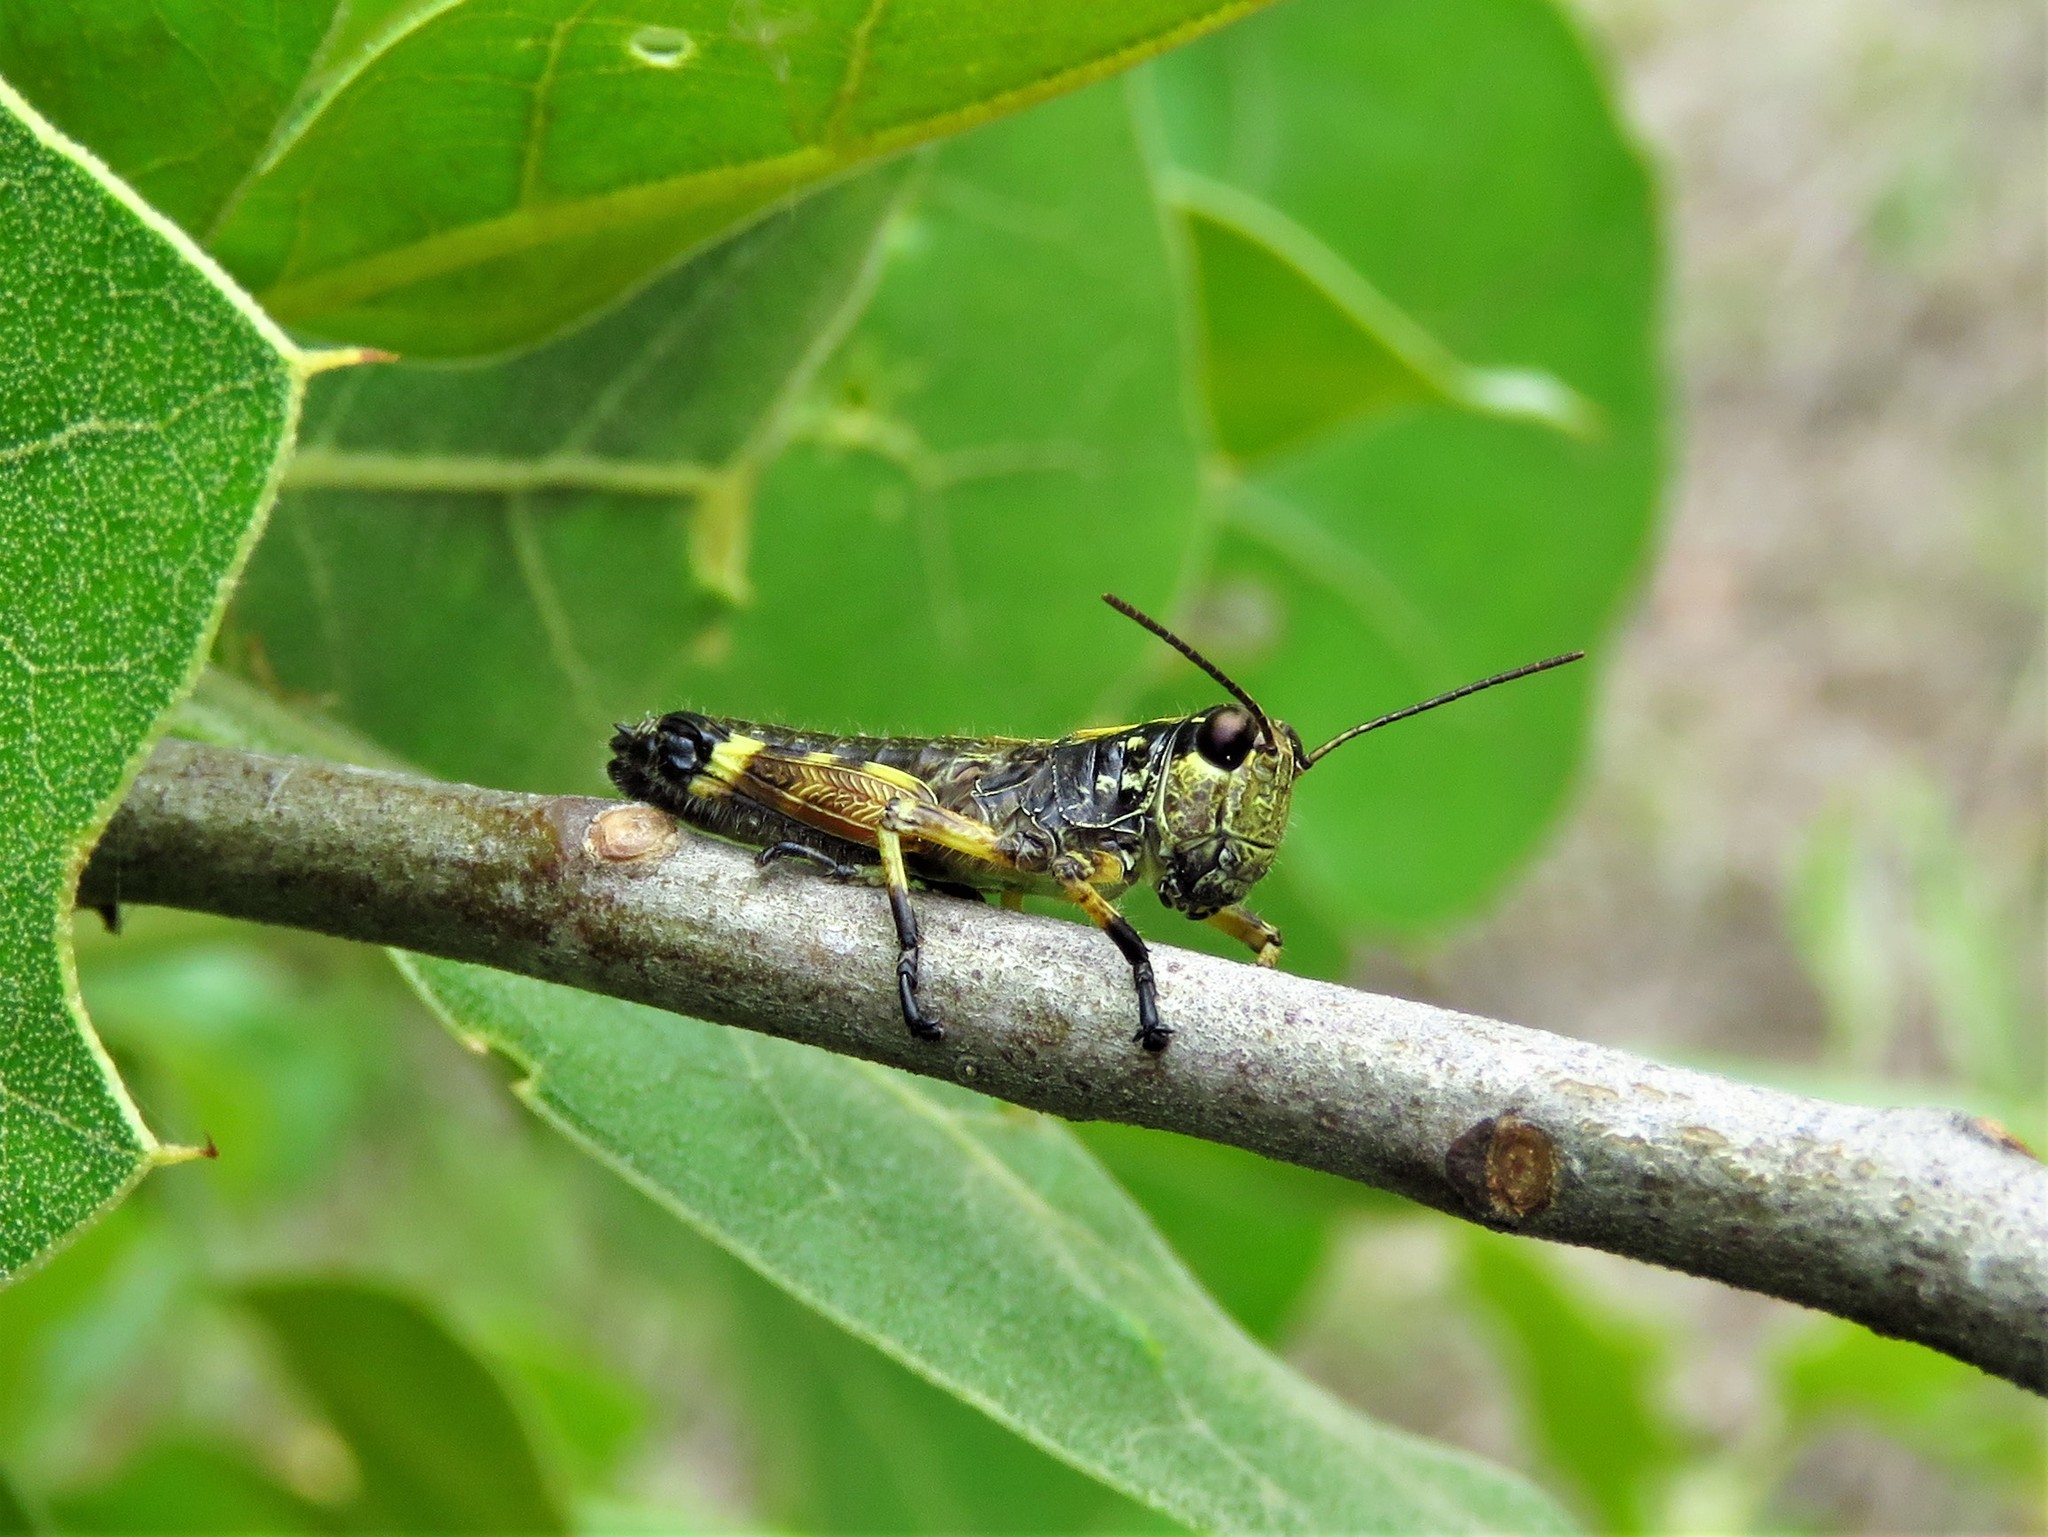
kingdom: Animalia
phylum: Arthropoda
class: Insecta
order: Orthoptera
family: Acrididae
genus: Dendrotettix
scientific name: Dendrotettix quercus
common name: Post oak grasshopper
